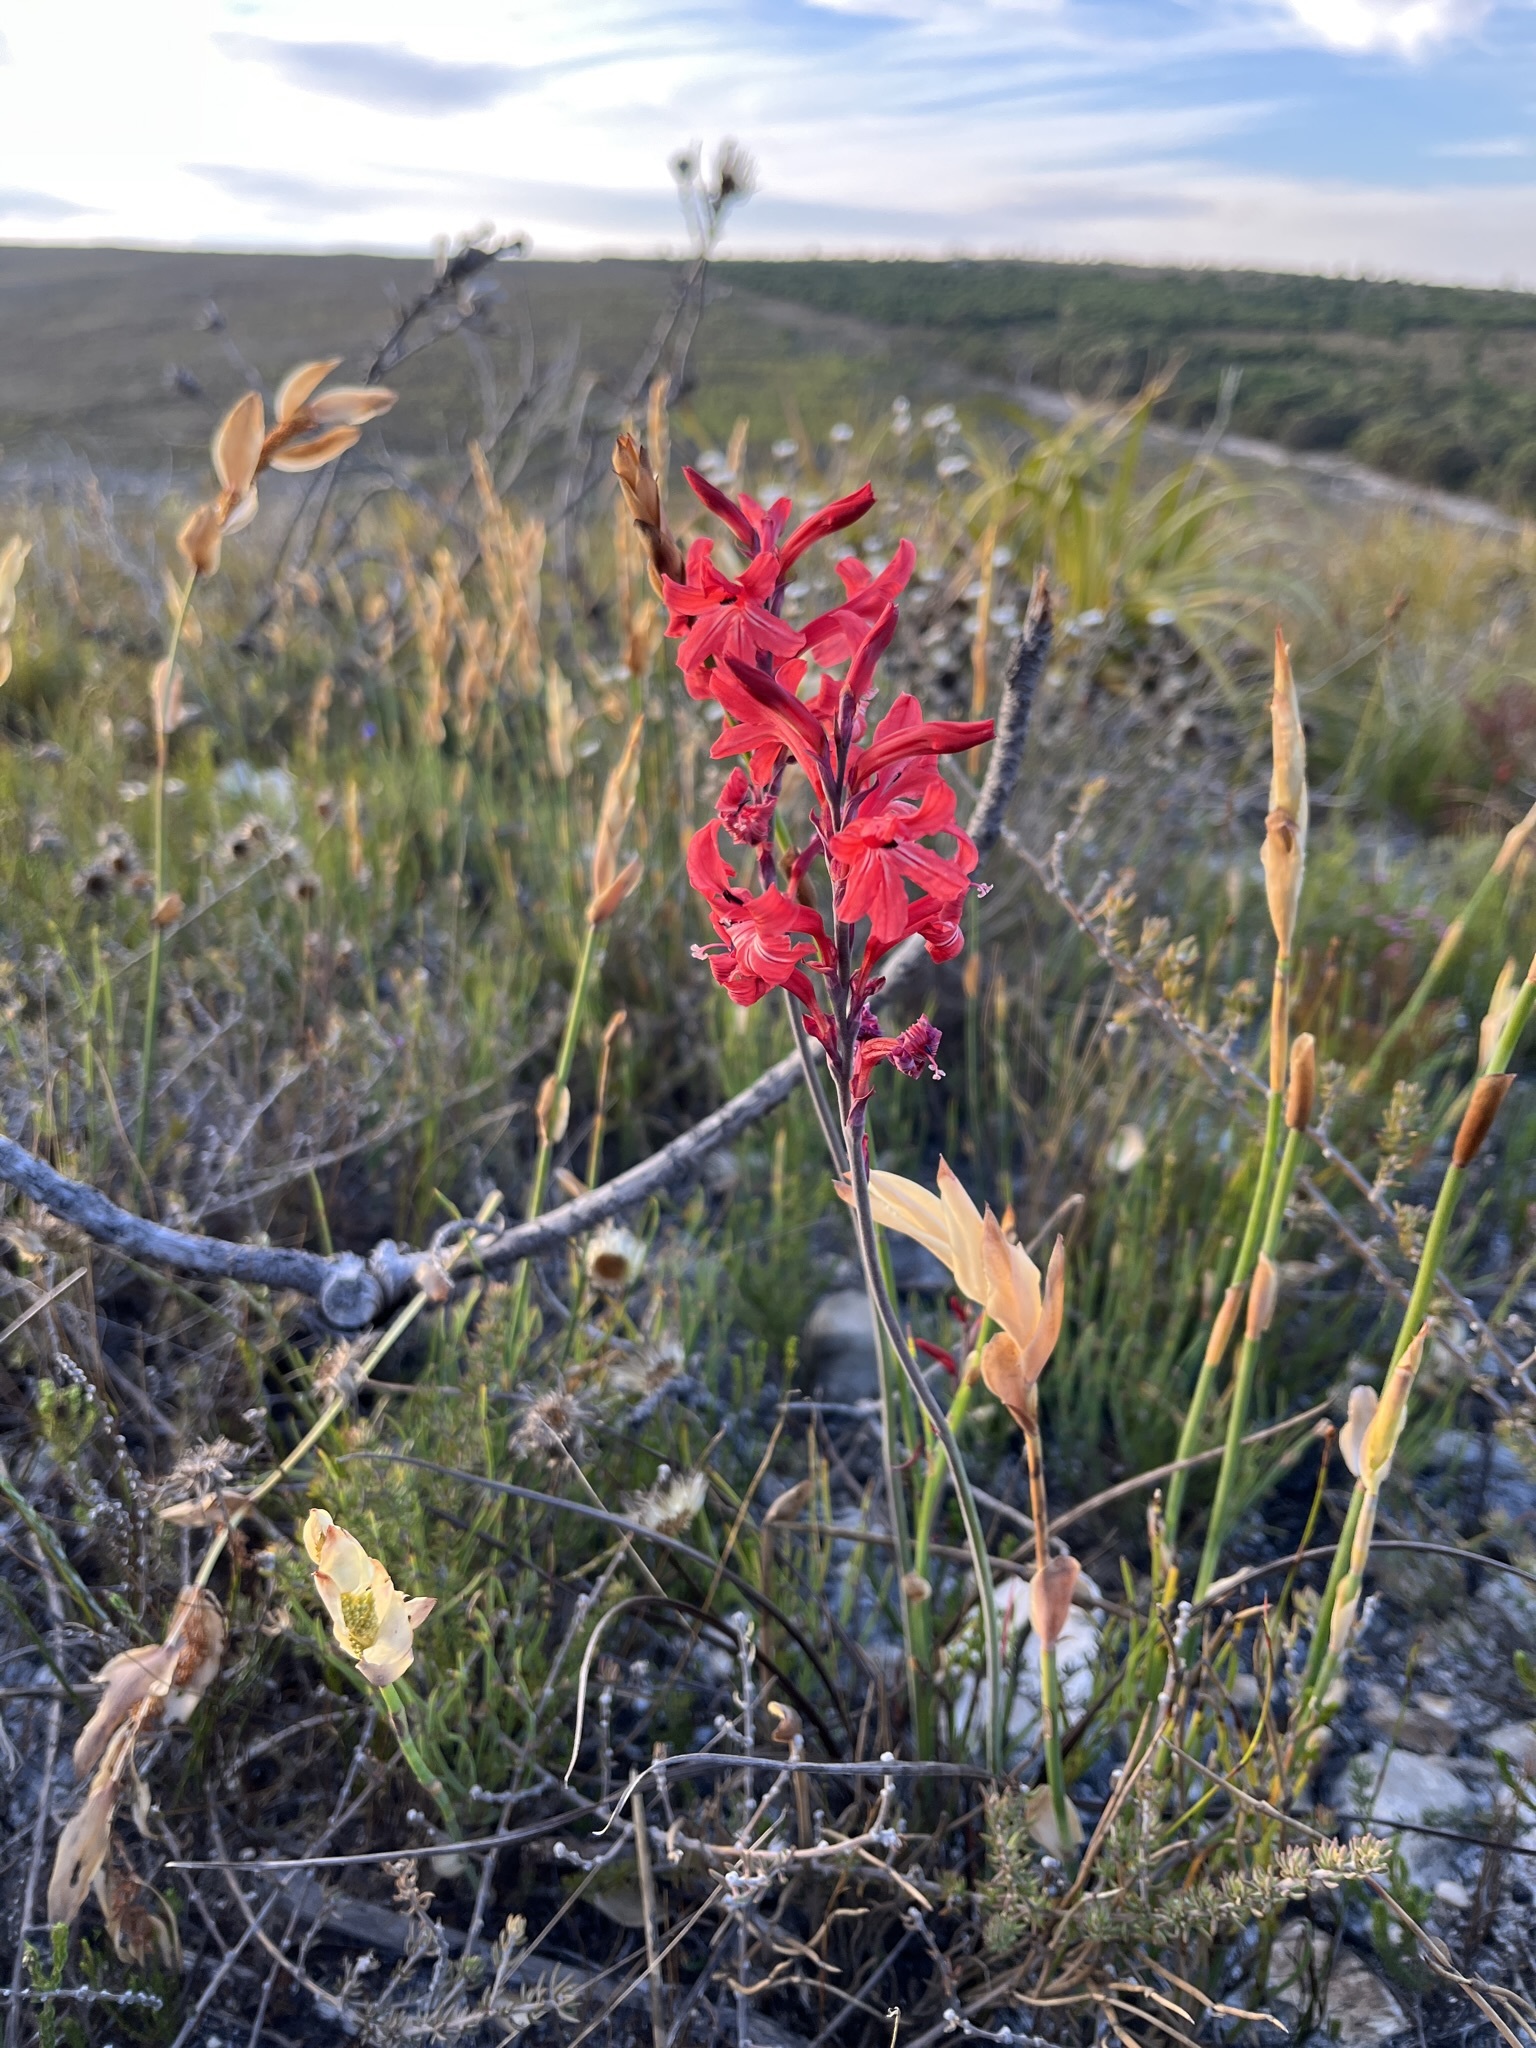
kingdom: Plantae
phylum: Tracheophyta
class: Liliopsida
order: Asparagales
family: Iridaceae
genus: Tritoniopsis
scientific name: Tritoniopsis pulchra
